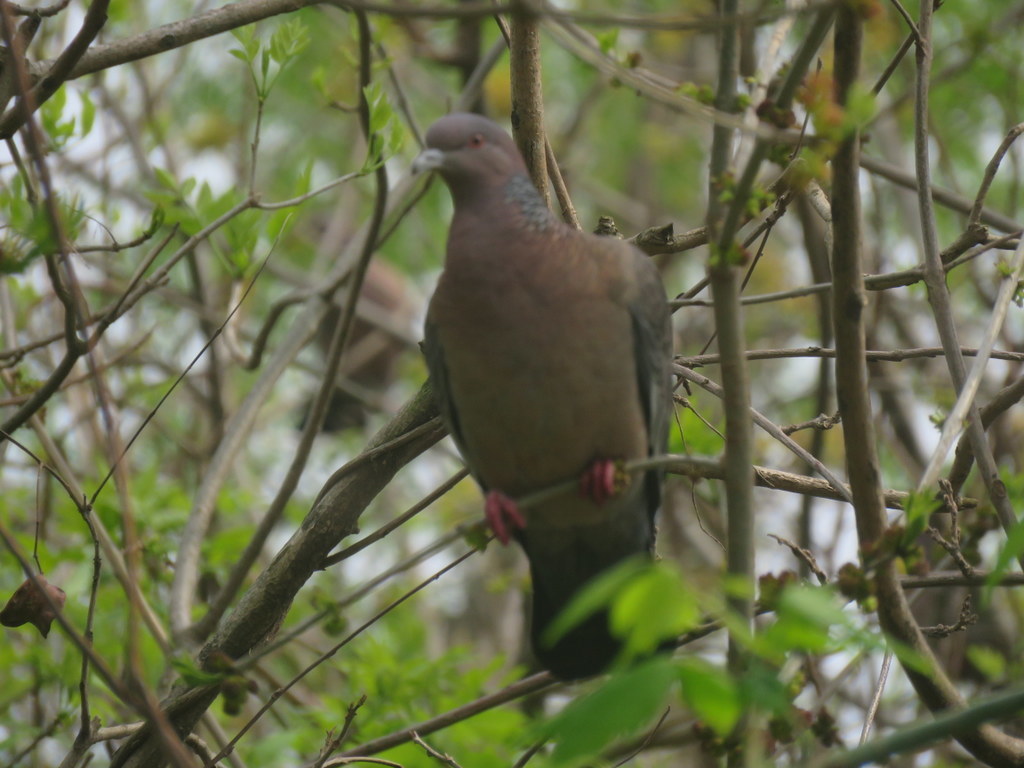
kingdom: Animalia
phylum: Chordata
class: Aves
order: Columbiformes
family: Columbidae
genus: Patagioenas
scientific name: Patagioenas picazuro
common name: Picazuro pigeon
